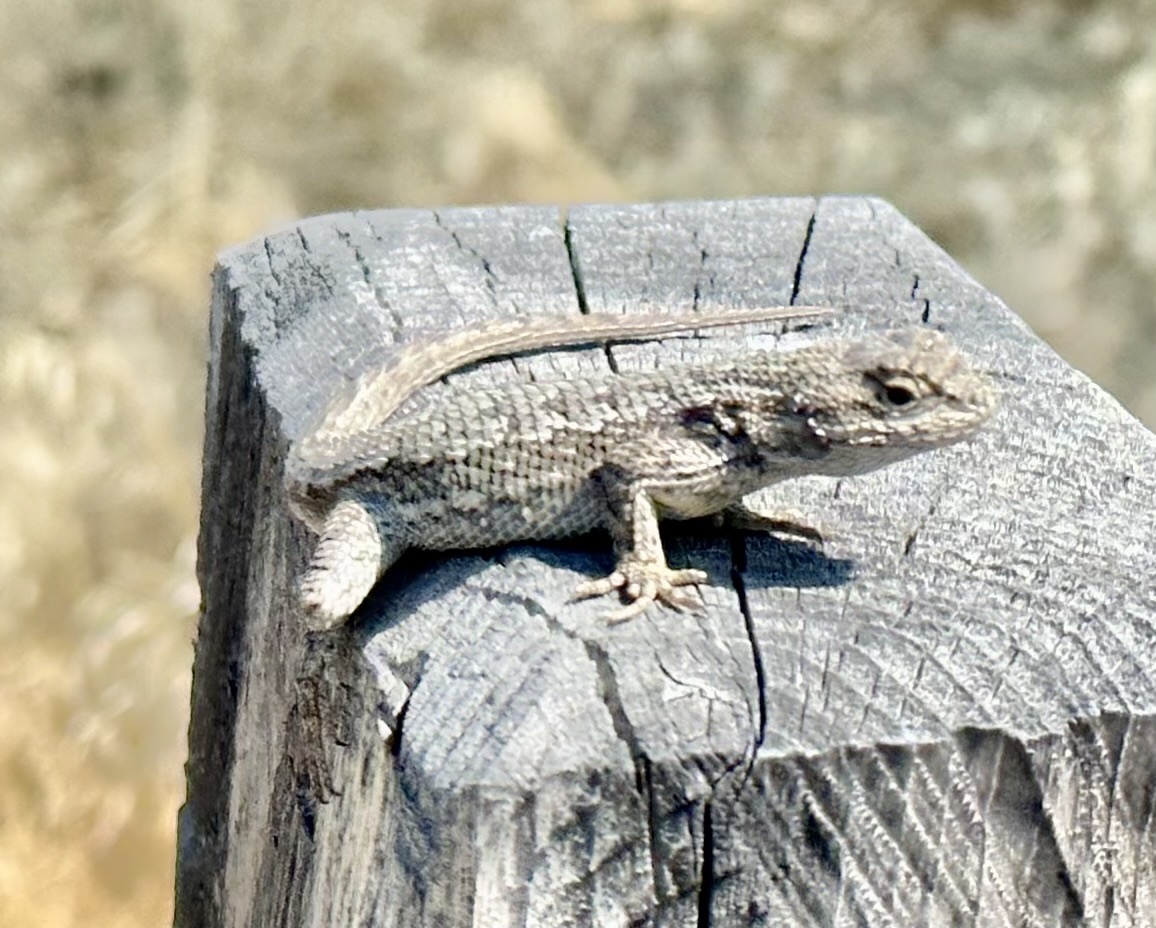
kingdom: Animalia
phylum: Chordata
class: Squamata
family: Phrynosomatidae
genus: Sceloporus
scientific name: Sceloporus occidentalis
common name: Western fence lizard
